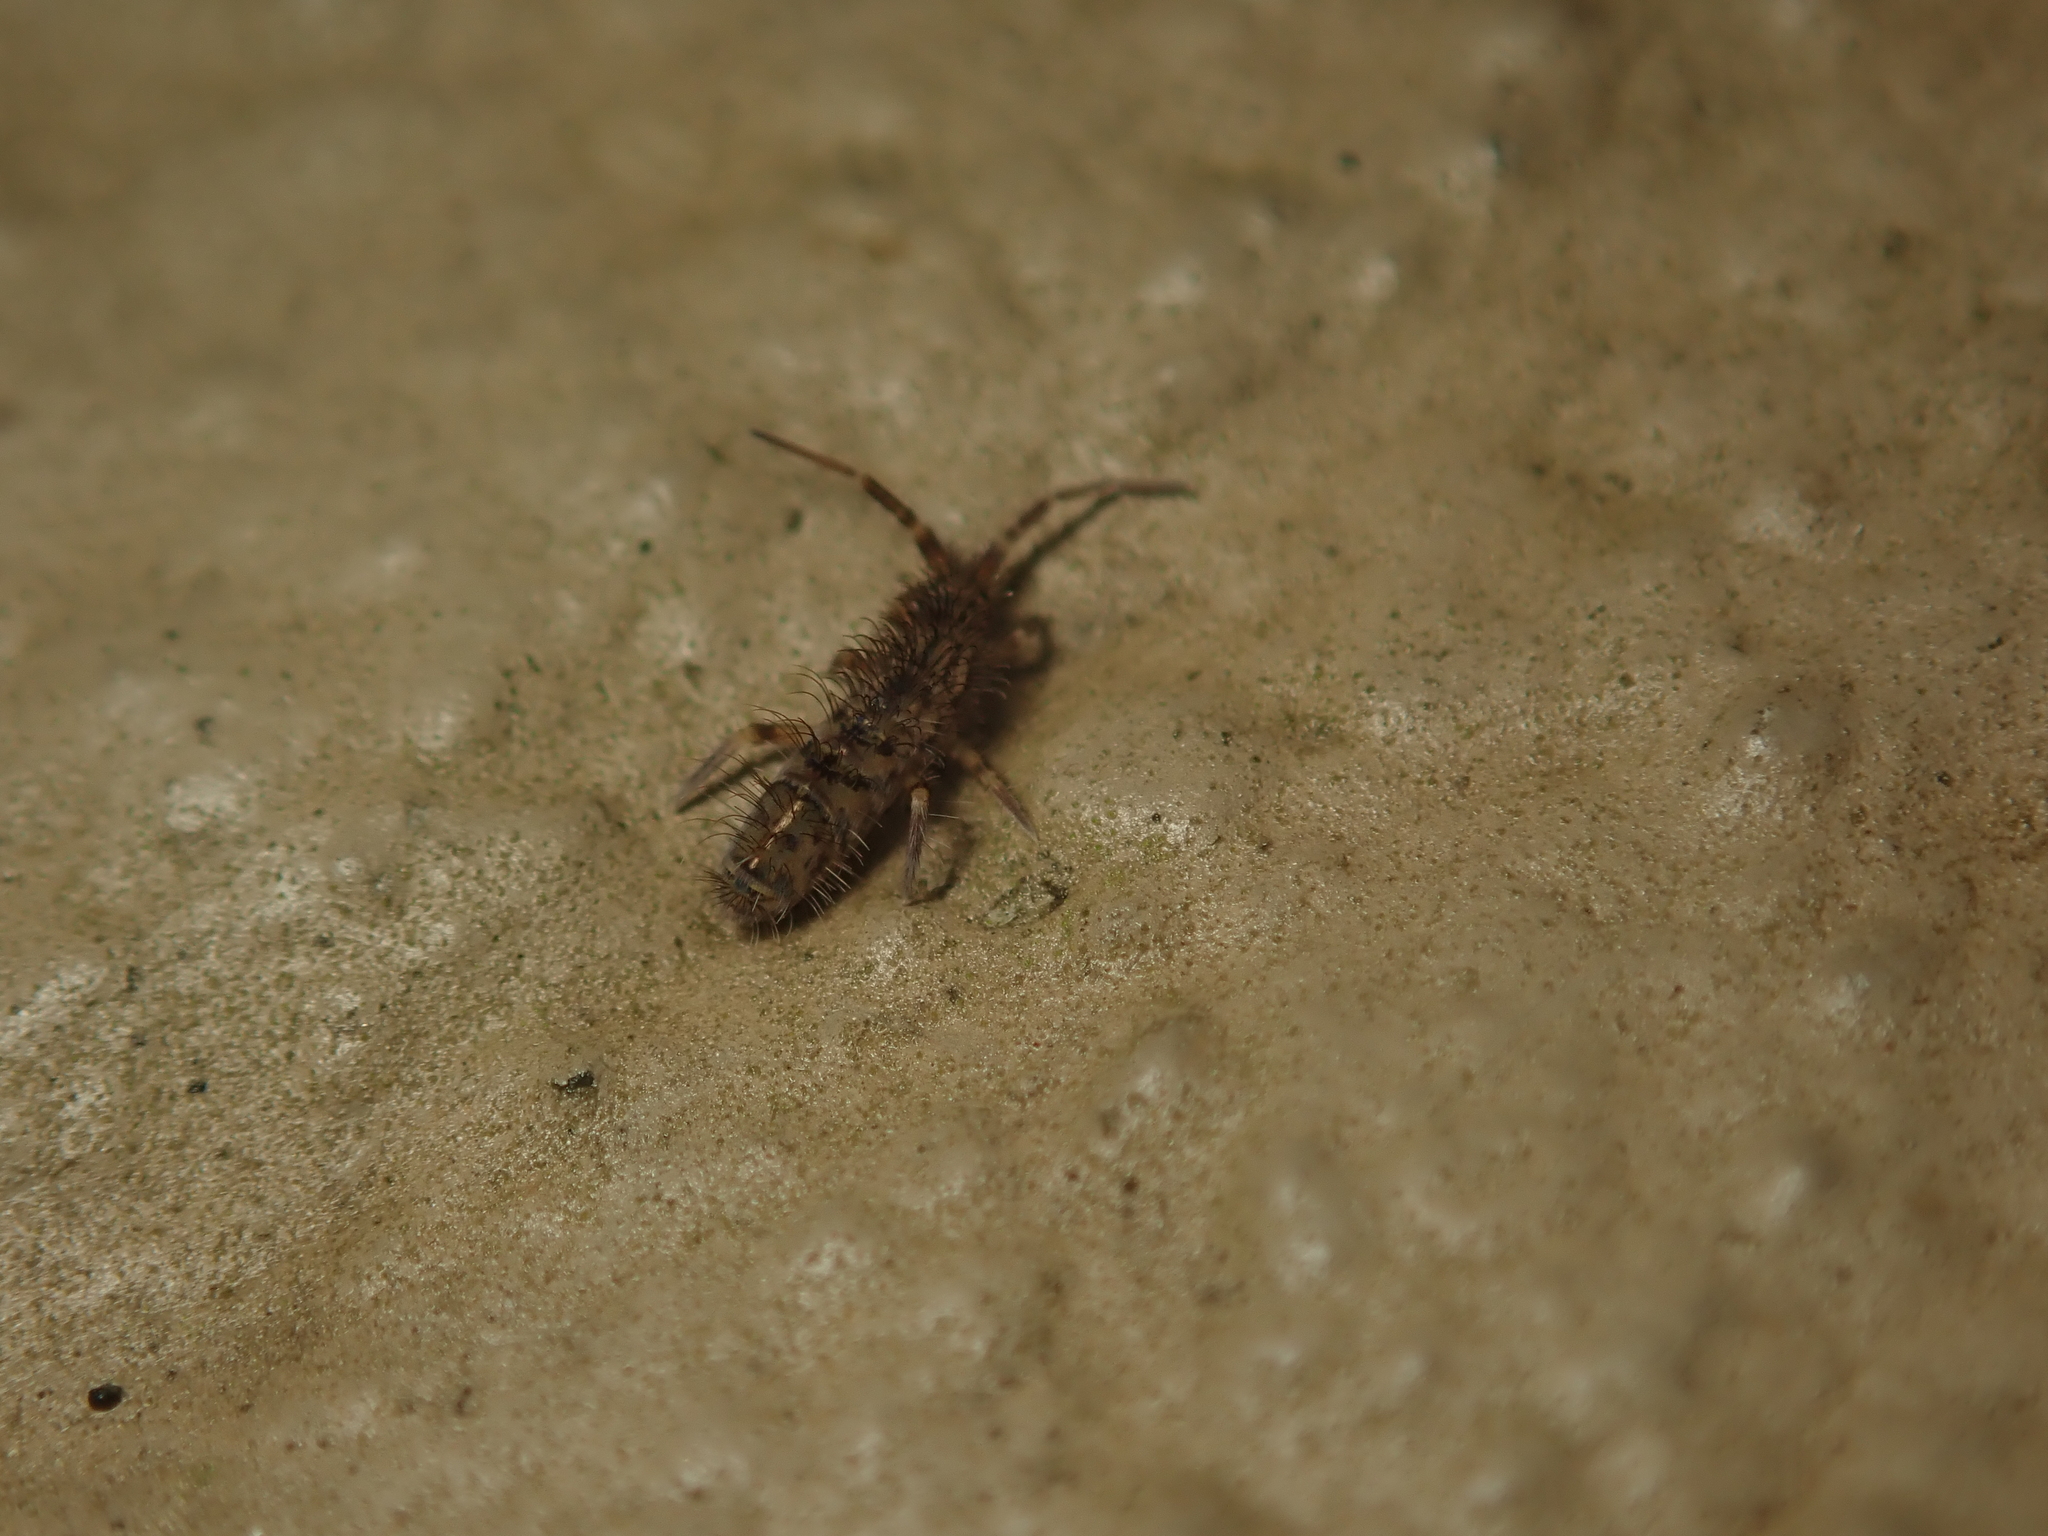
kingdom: Animalia
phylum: Arthropoda
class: Collembola
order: Entomobryomorpha
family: Orchesellidae
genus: Orchesella
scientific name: Orchesella villosa
